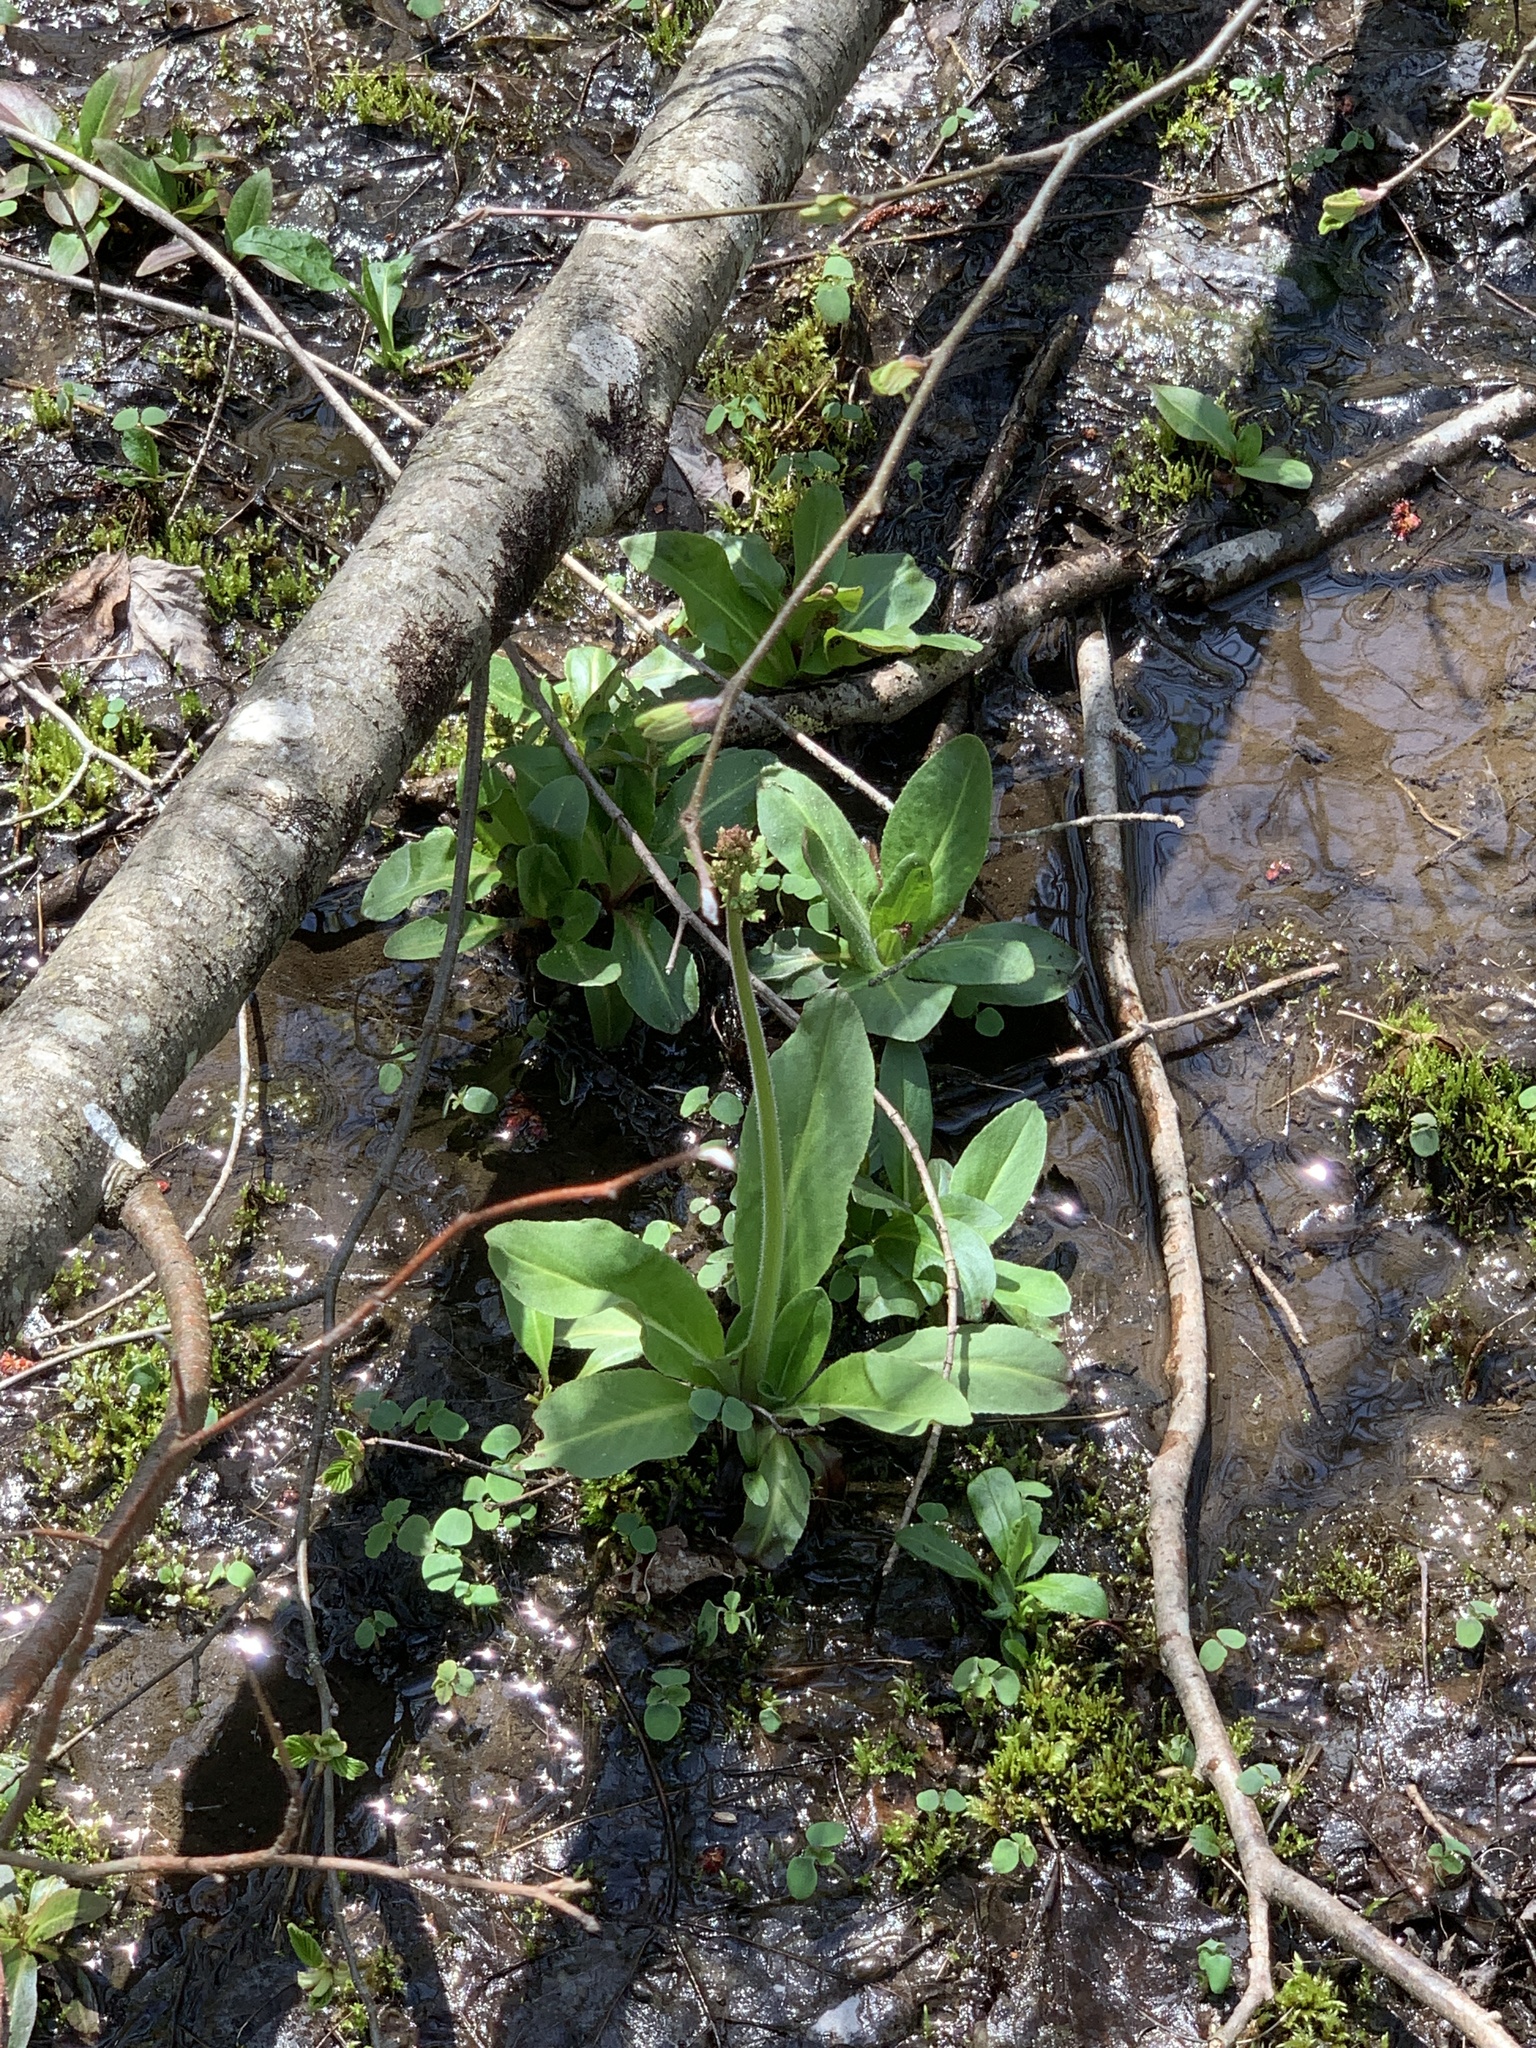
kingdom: Plantae
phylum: Tracheophyta
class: Magnoliopsida
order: Saxifragales
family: Saxifragaceae
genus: Micranthes
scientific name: Micranthes pensylvanica
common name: Marsh saxifrage
